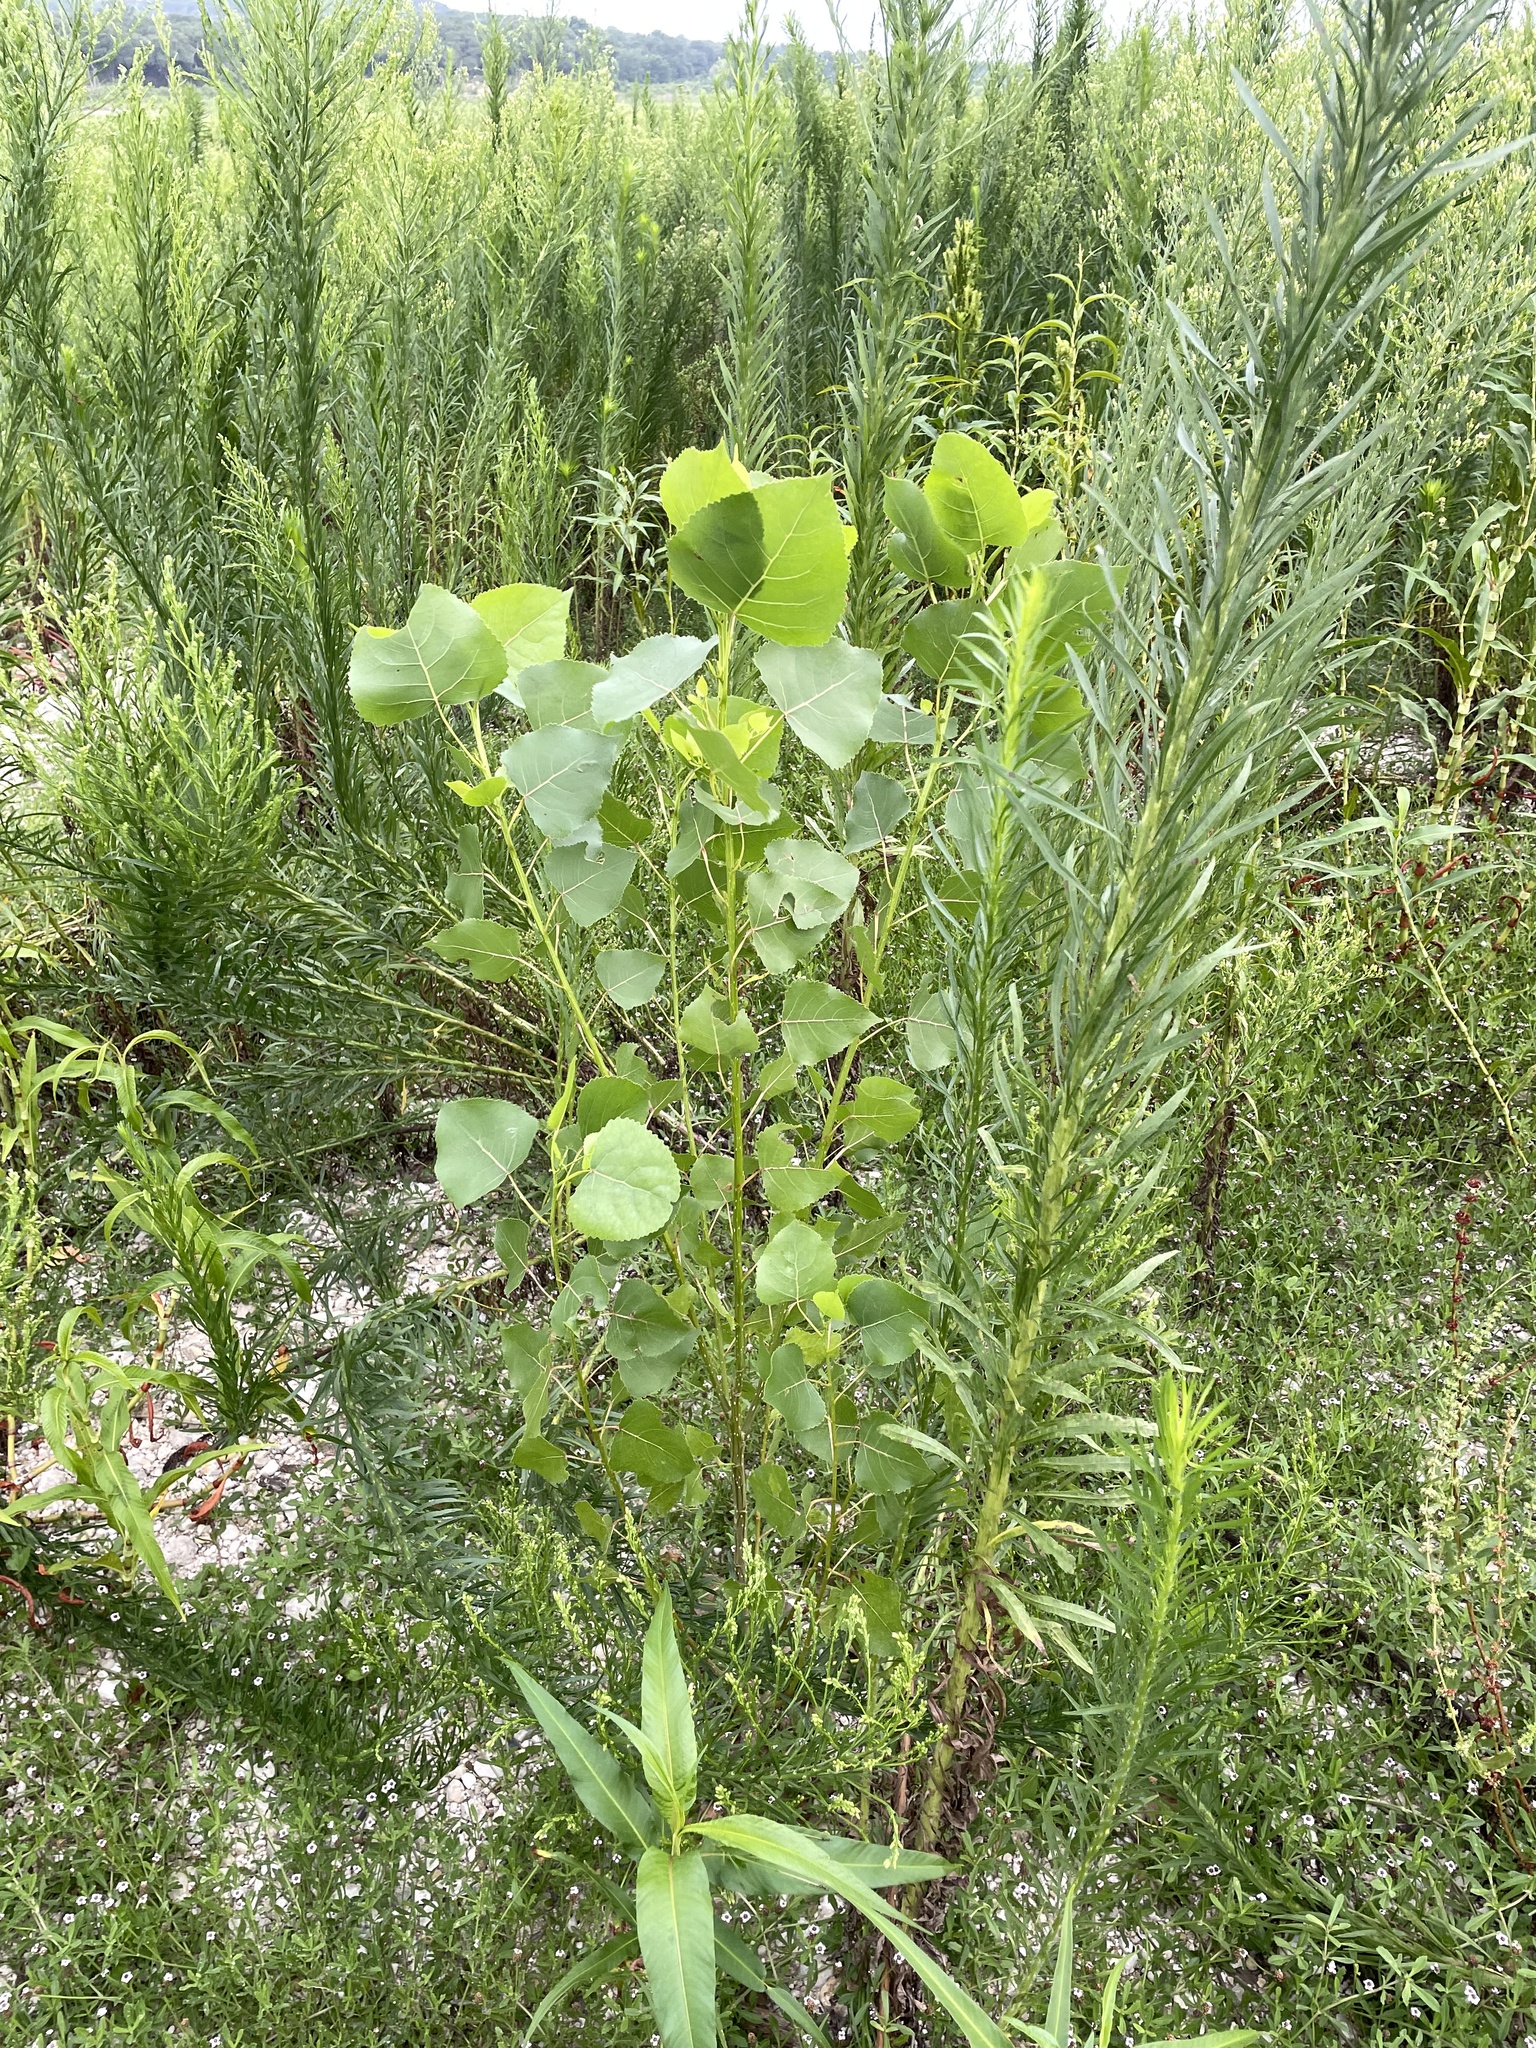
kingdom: Plantae
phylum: Tracheophyta
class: Magnoliopsida
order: Malpighiales
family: Salicaceae
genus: Populus
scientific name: Populus deltoides
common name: Eastern cottonwood
